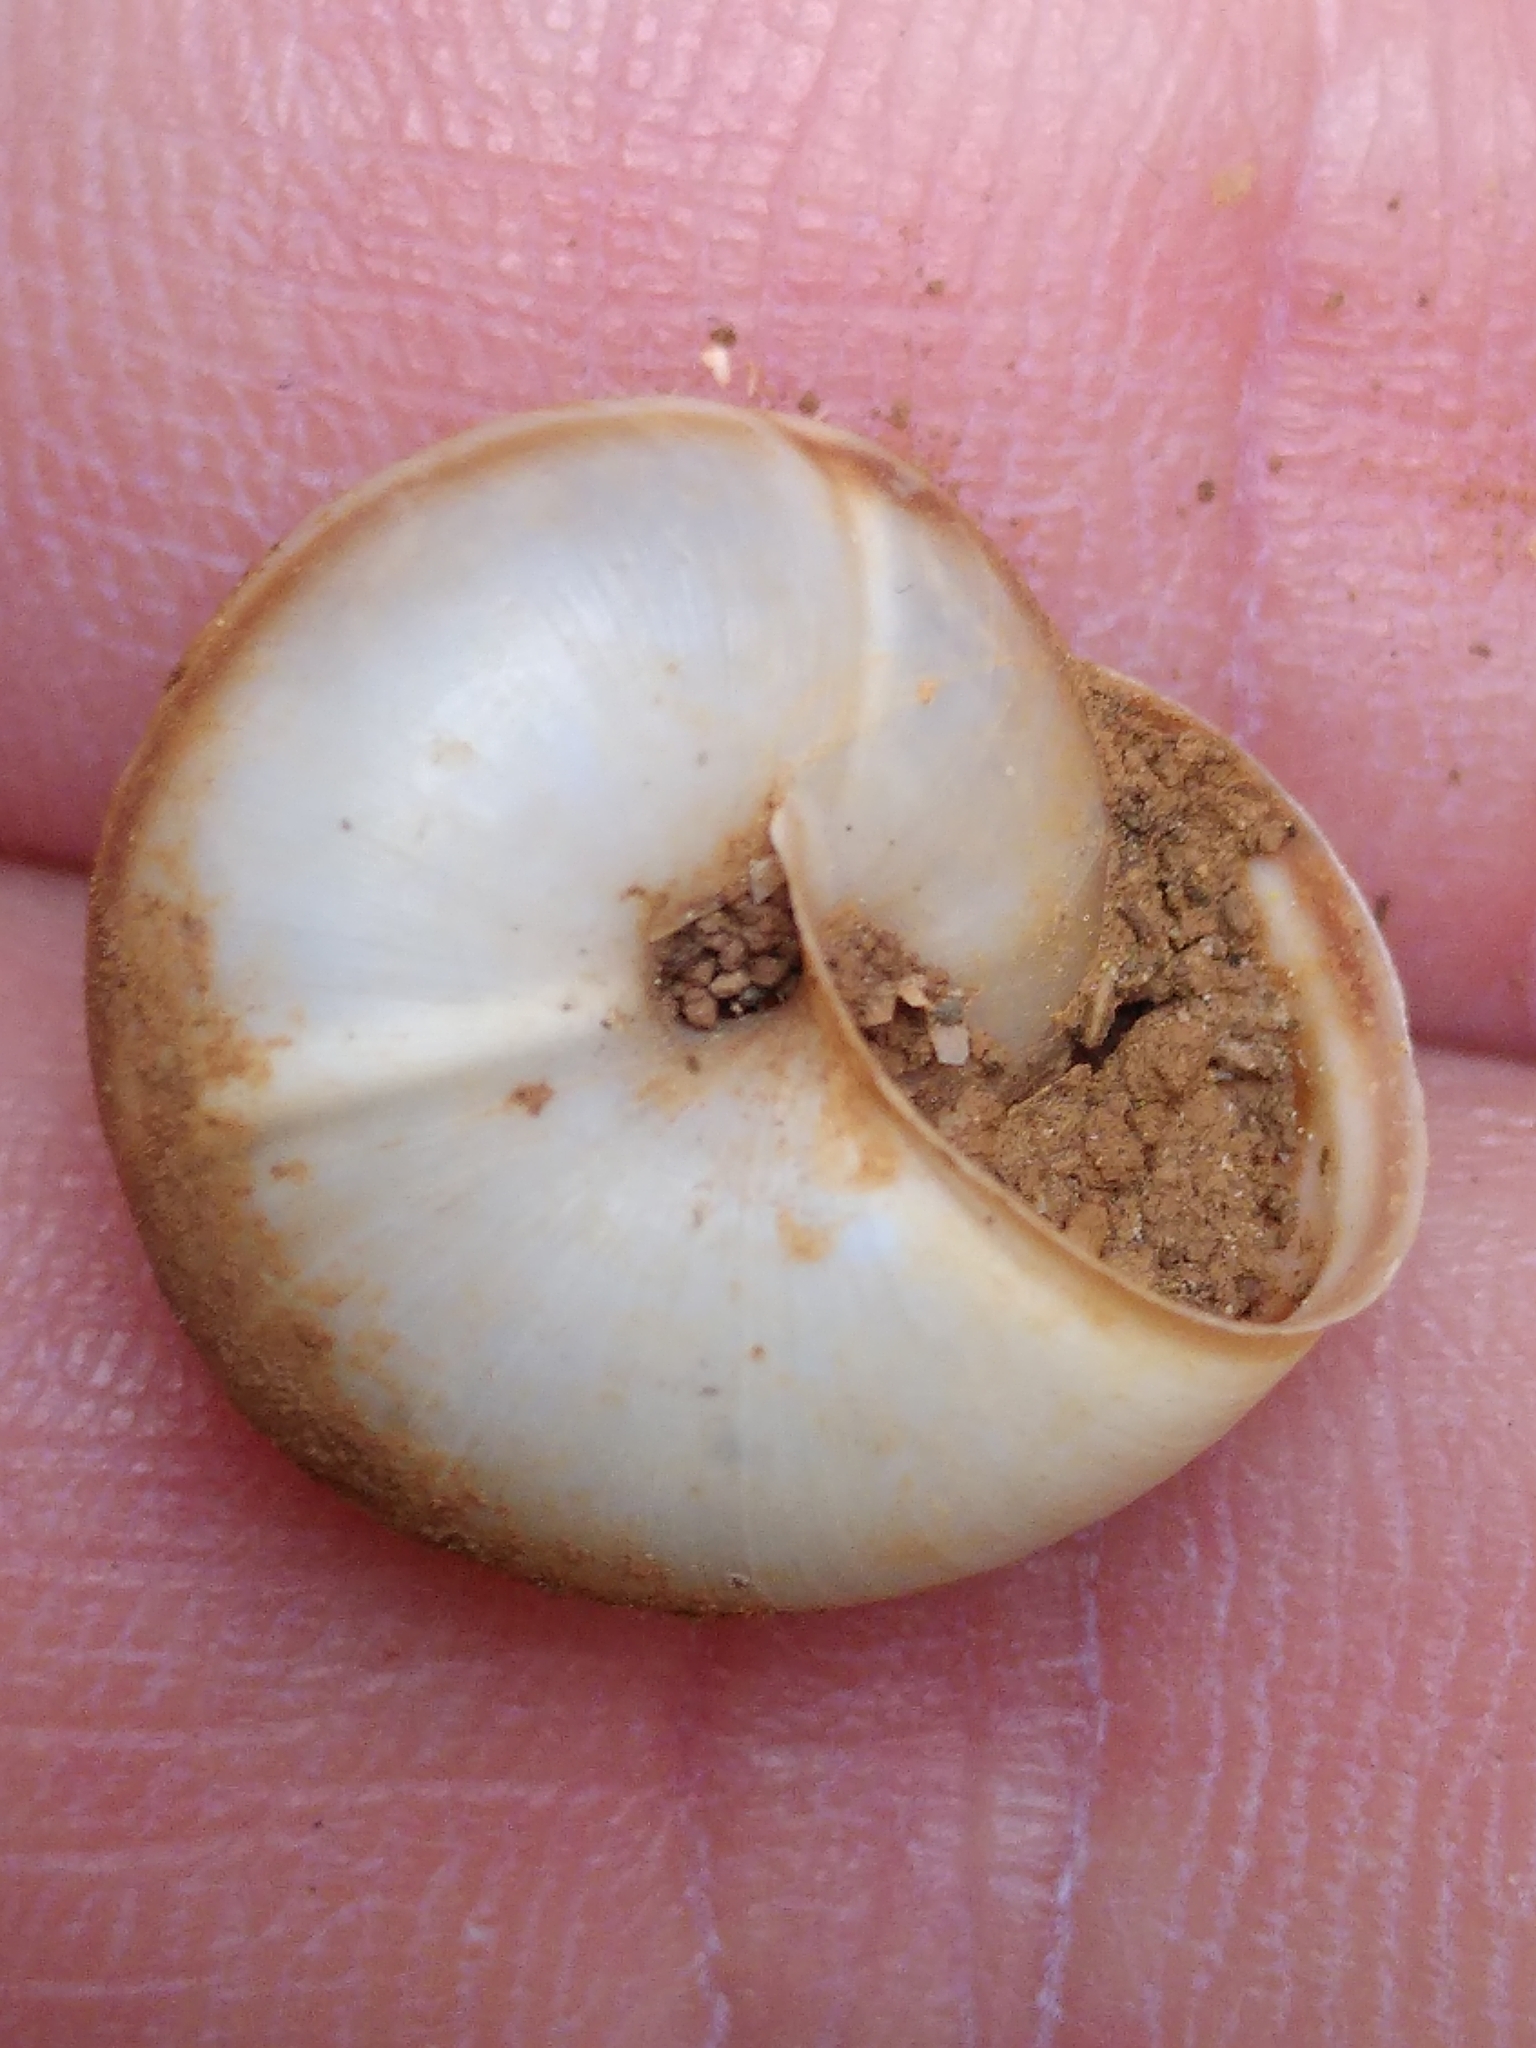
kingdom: Animalia
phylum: Mollusca
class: Gastropoda
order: Stylommatophora
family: Hygromiidae
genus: Metafruticicola
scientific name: Metafruticicola sublecta
